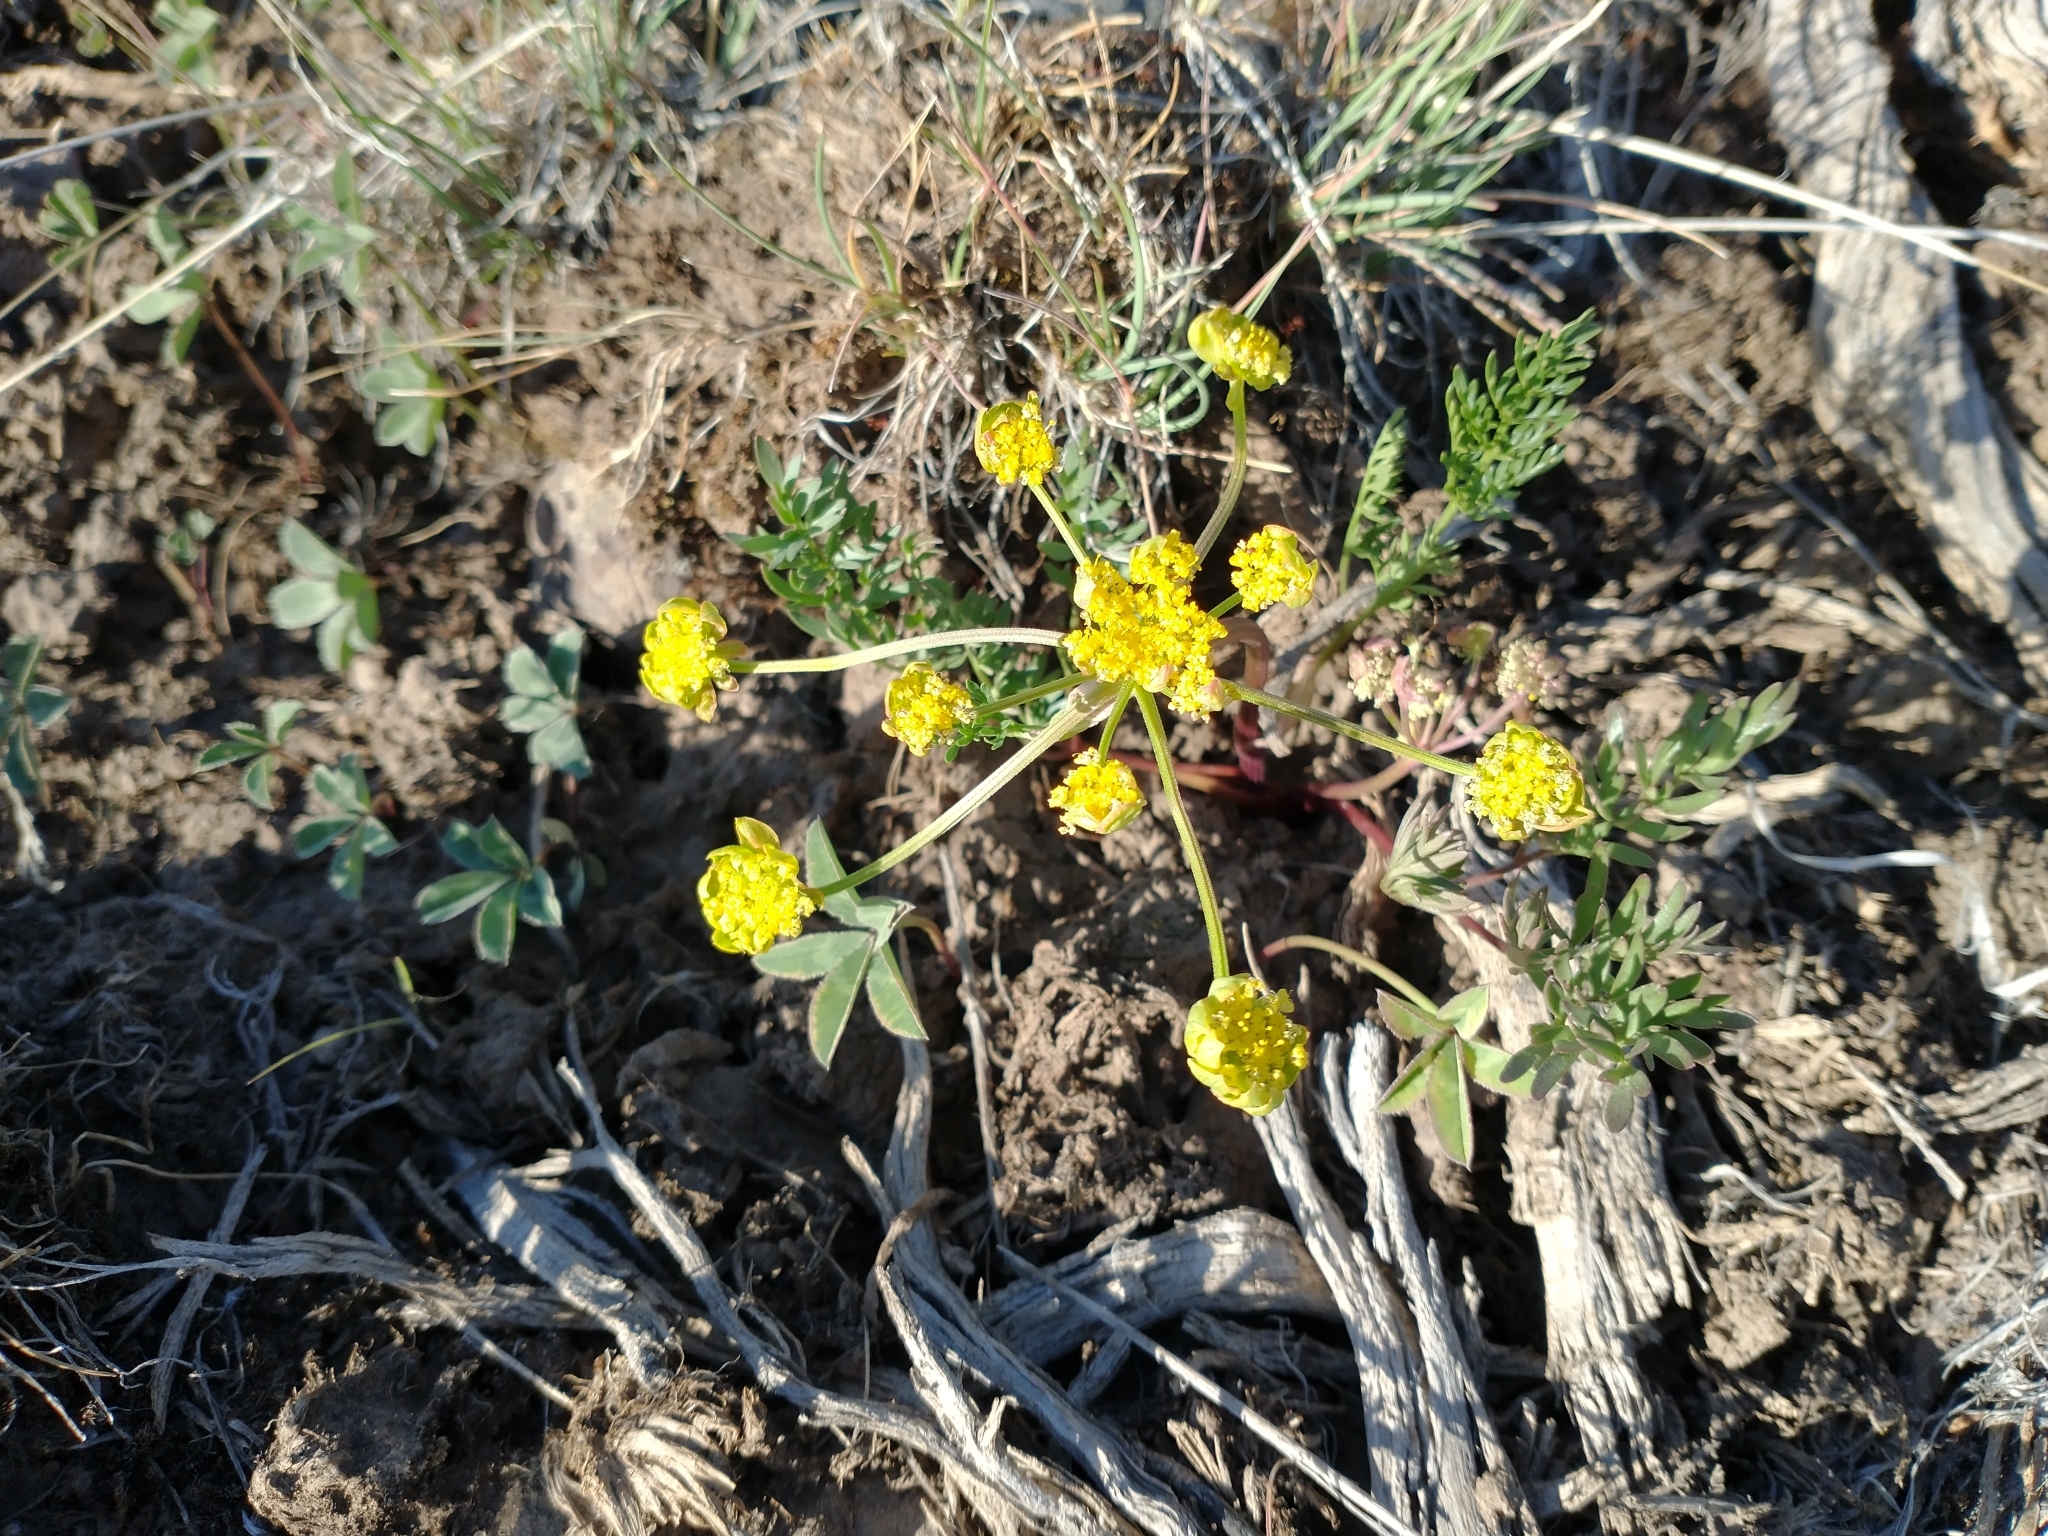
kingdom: Plantae
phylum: Tracheophyta
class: Magnoliopsida
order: Apiales
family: Apiaceae
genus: Lomatium
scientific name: Lomatium cous
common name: Biscuit-root
